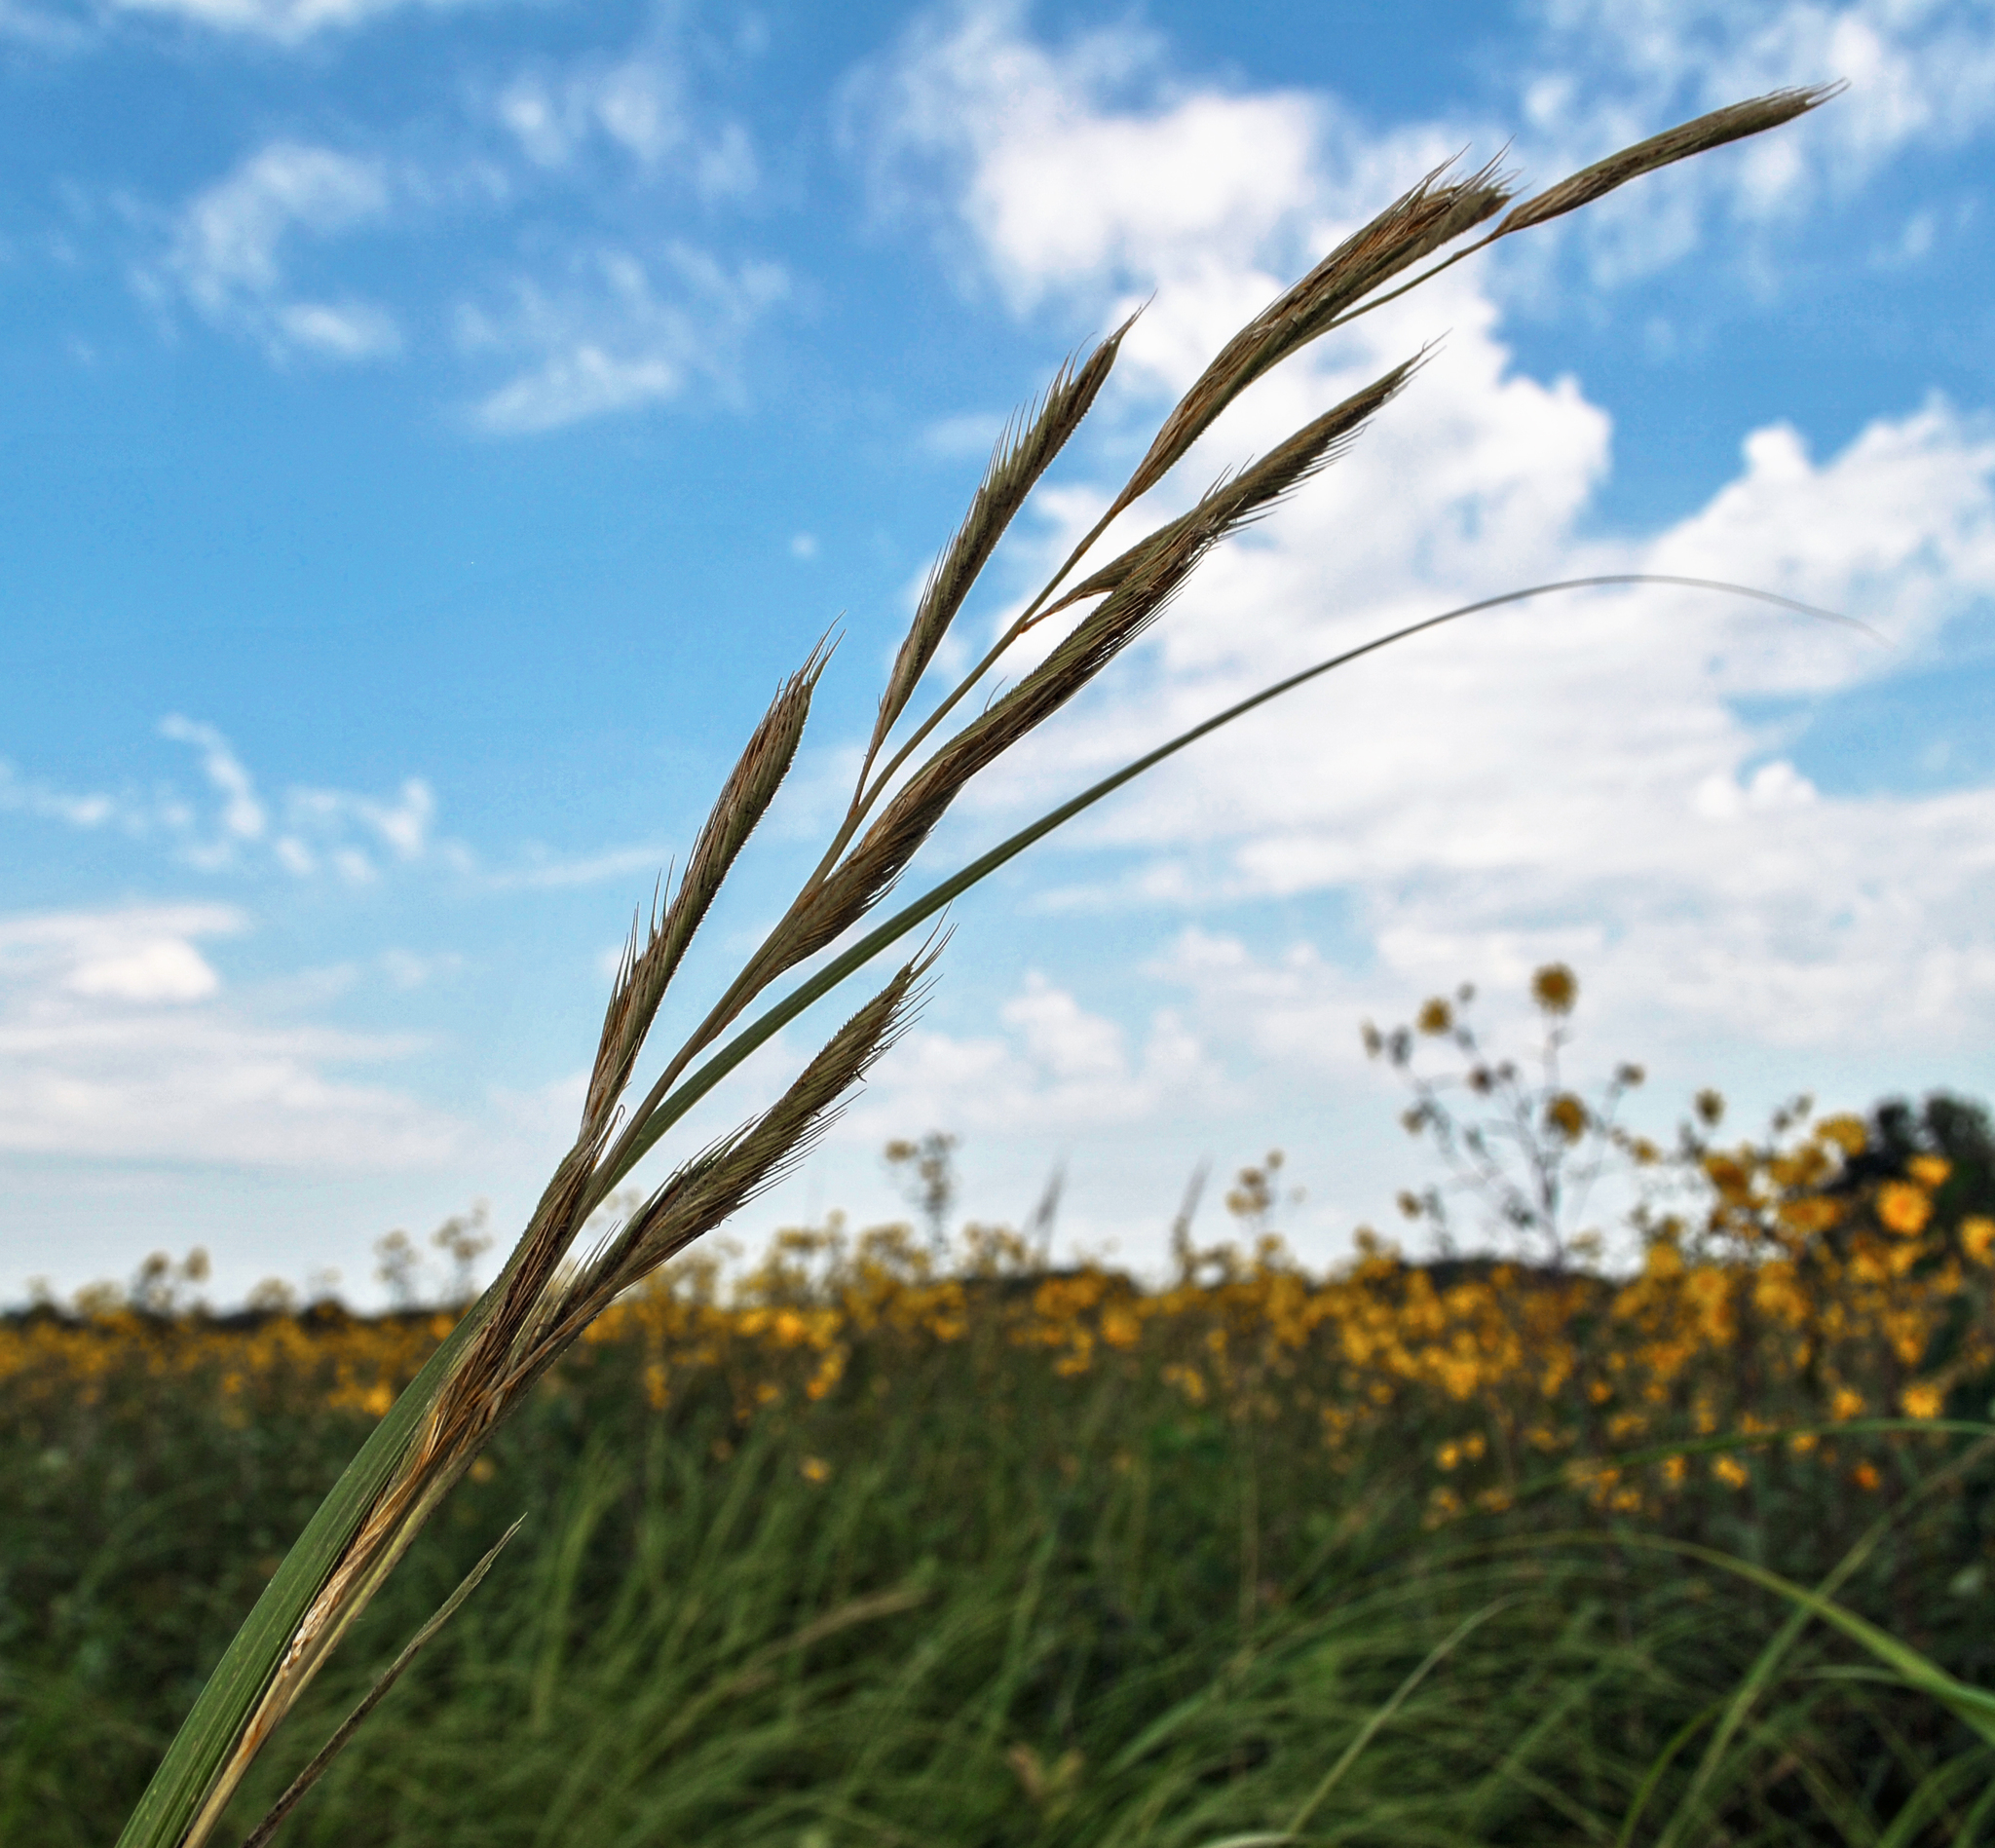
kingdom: Plantae
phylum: Tracheophyta
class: Liliopsida
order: Poales
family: Poaceae
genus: Sporobolus
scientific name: Sporobolus michauxianus
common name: Freshwater cordgrass
